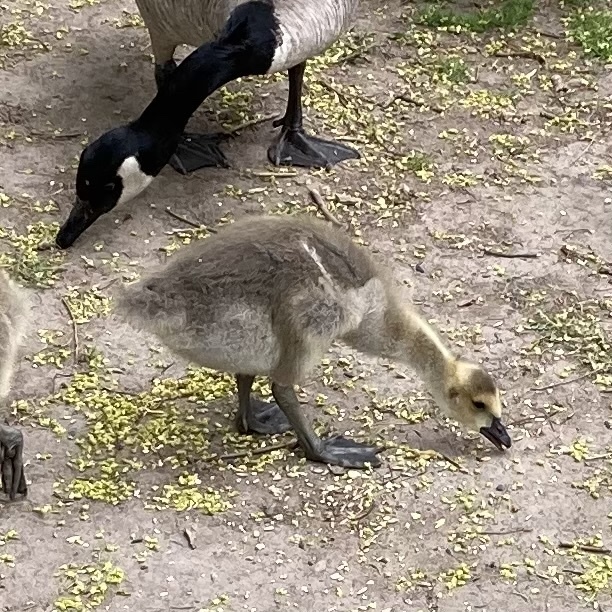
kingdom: Animalia
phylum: Chordata
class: Aves
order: Anseriformes
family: Anatidae
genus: Branta
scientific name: Branta canadensis
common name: Canada goose
